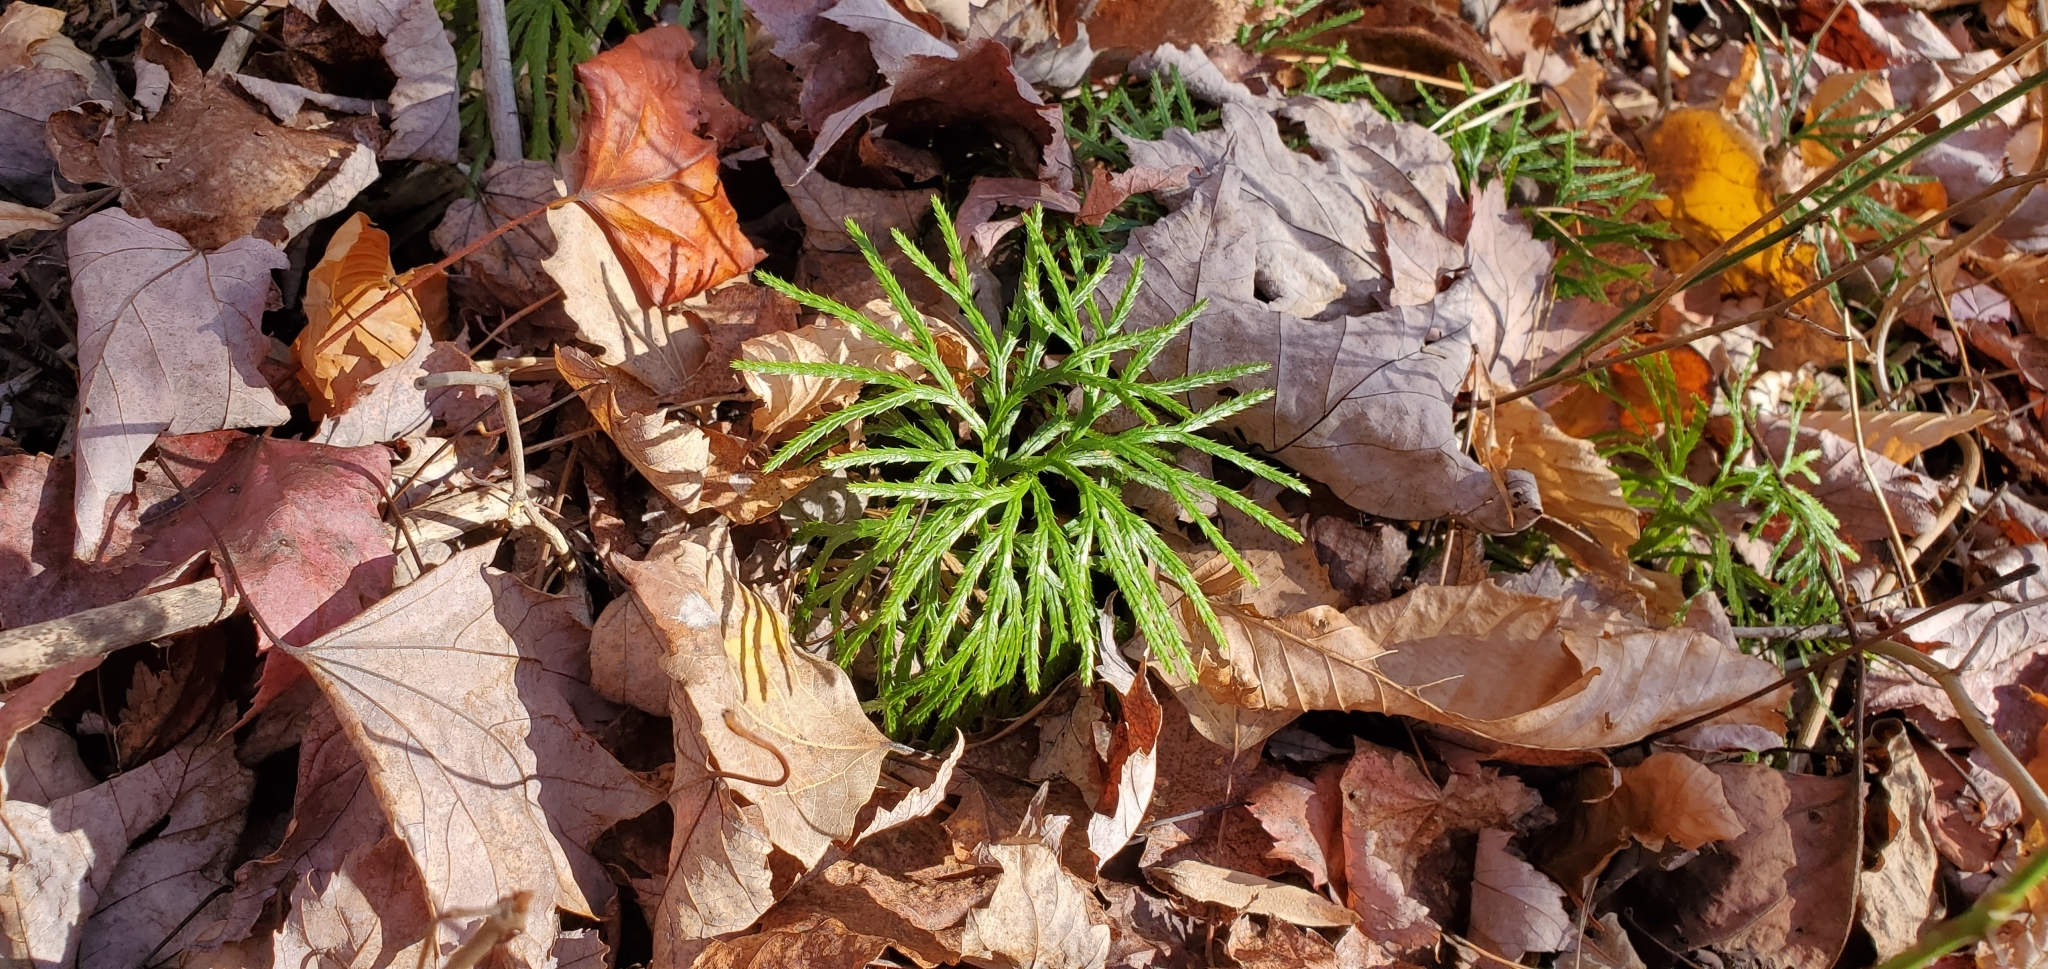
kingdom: Plantae
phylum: Tracheophyta
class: Lycopodiopsida
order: Lycopodiales
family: Lycopodiaceae
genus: Diphasiastrum
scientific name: Diphasiastrum digitatum
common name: Southern running-pine
